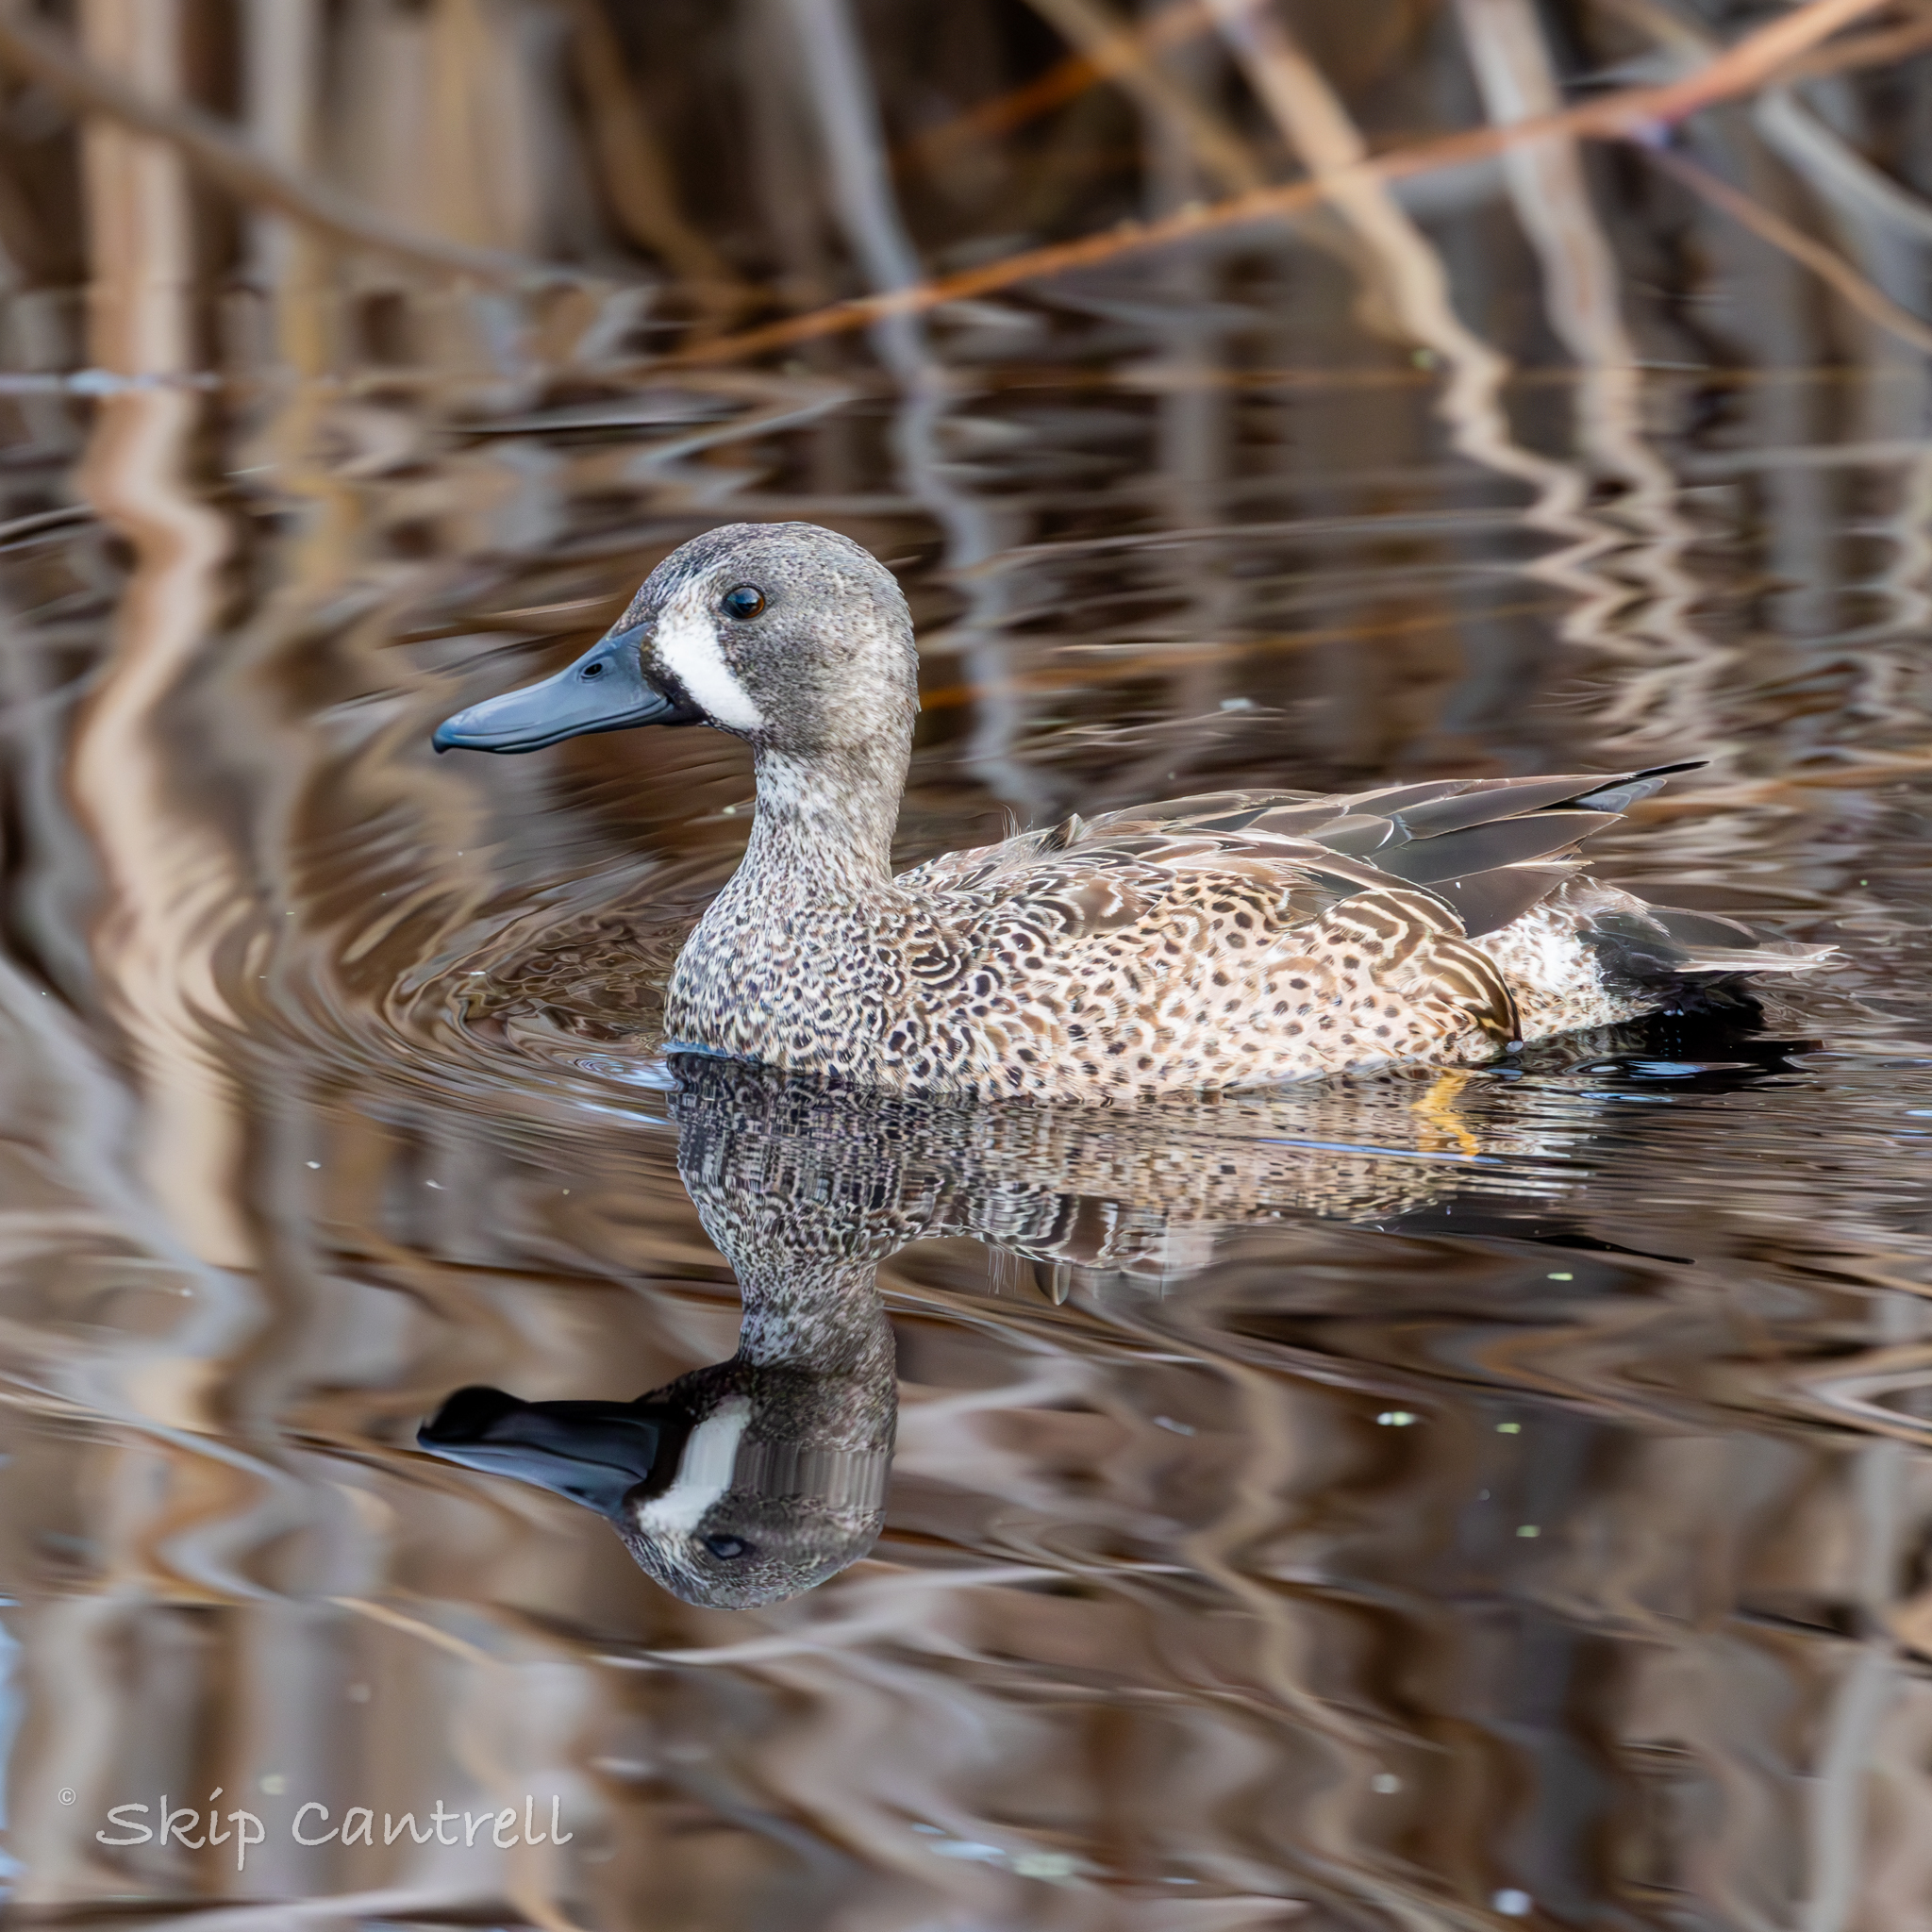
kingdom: Animalia
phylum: Chordata
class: Aves
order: Anseriformes
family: Anatidae
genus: Spatula
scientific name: Spatula discors
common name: Blue-winged teal
